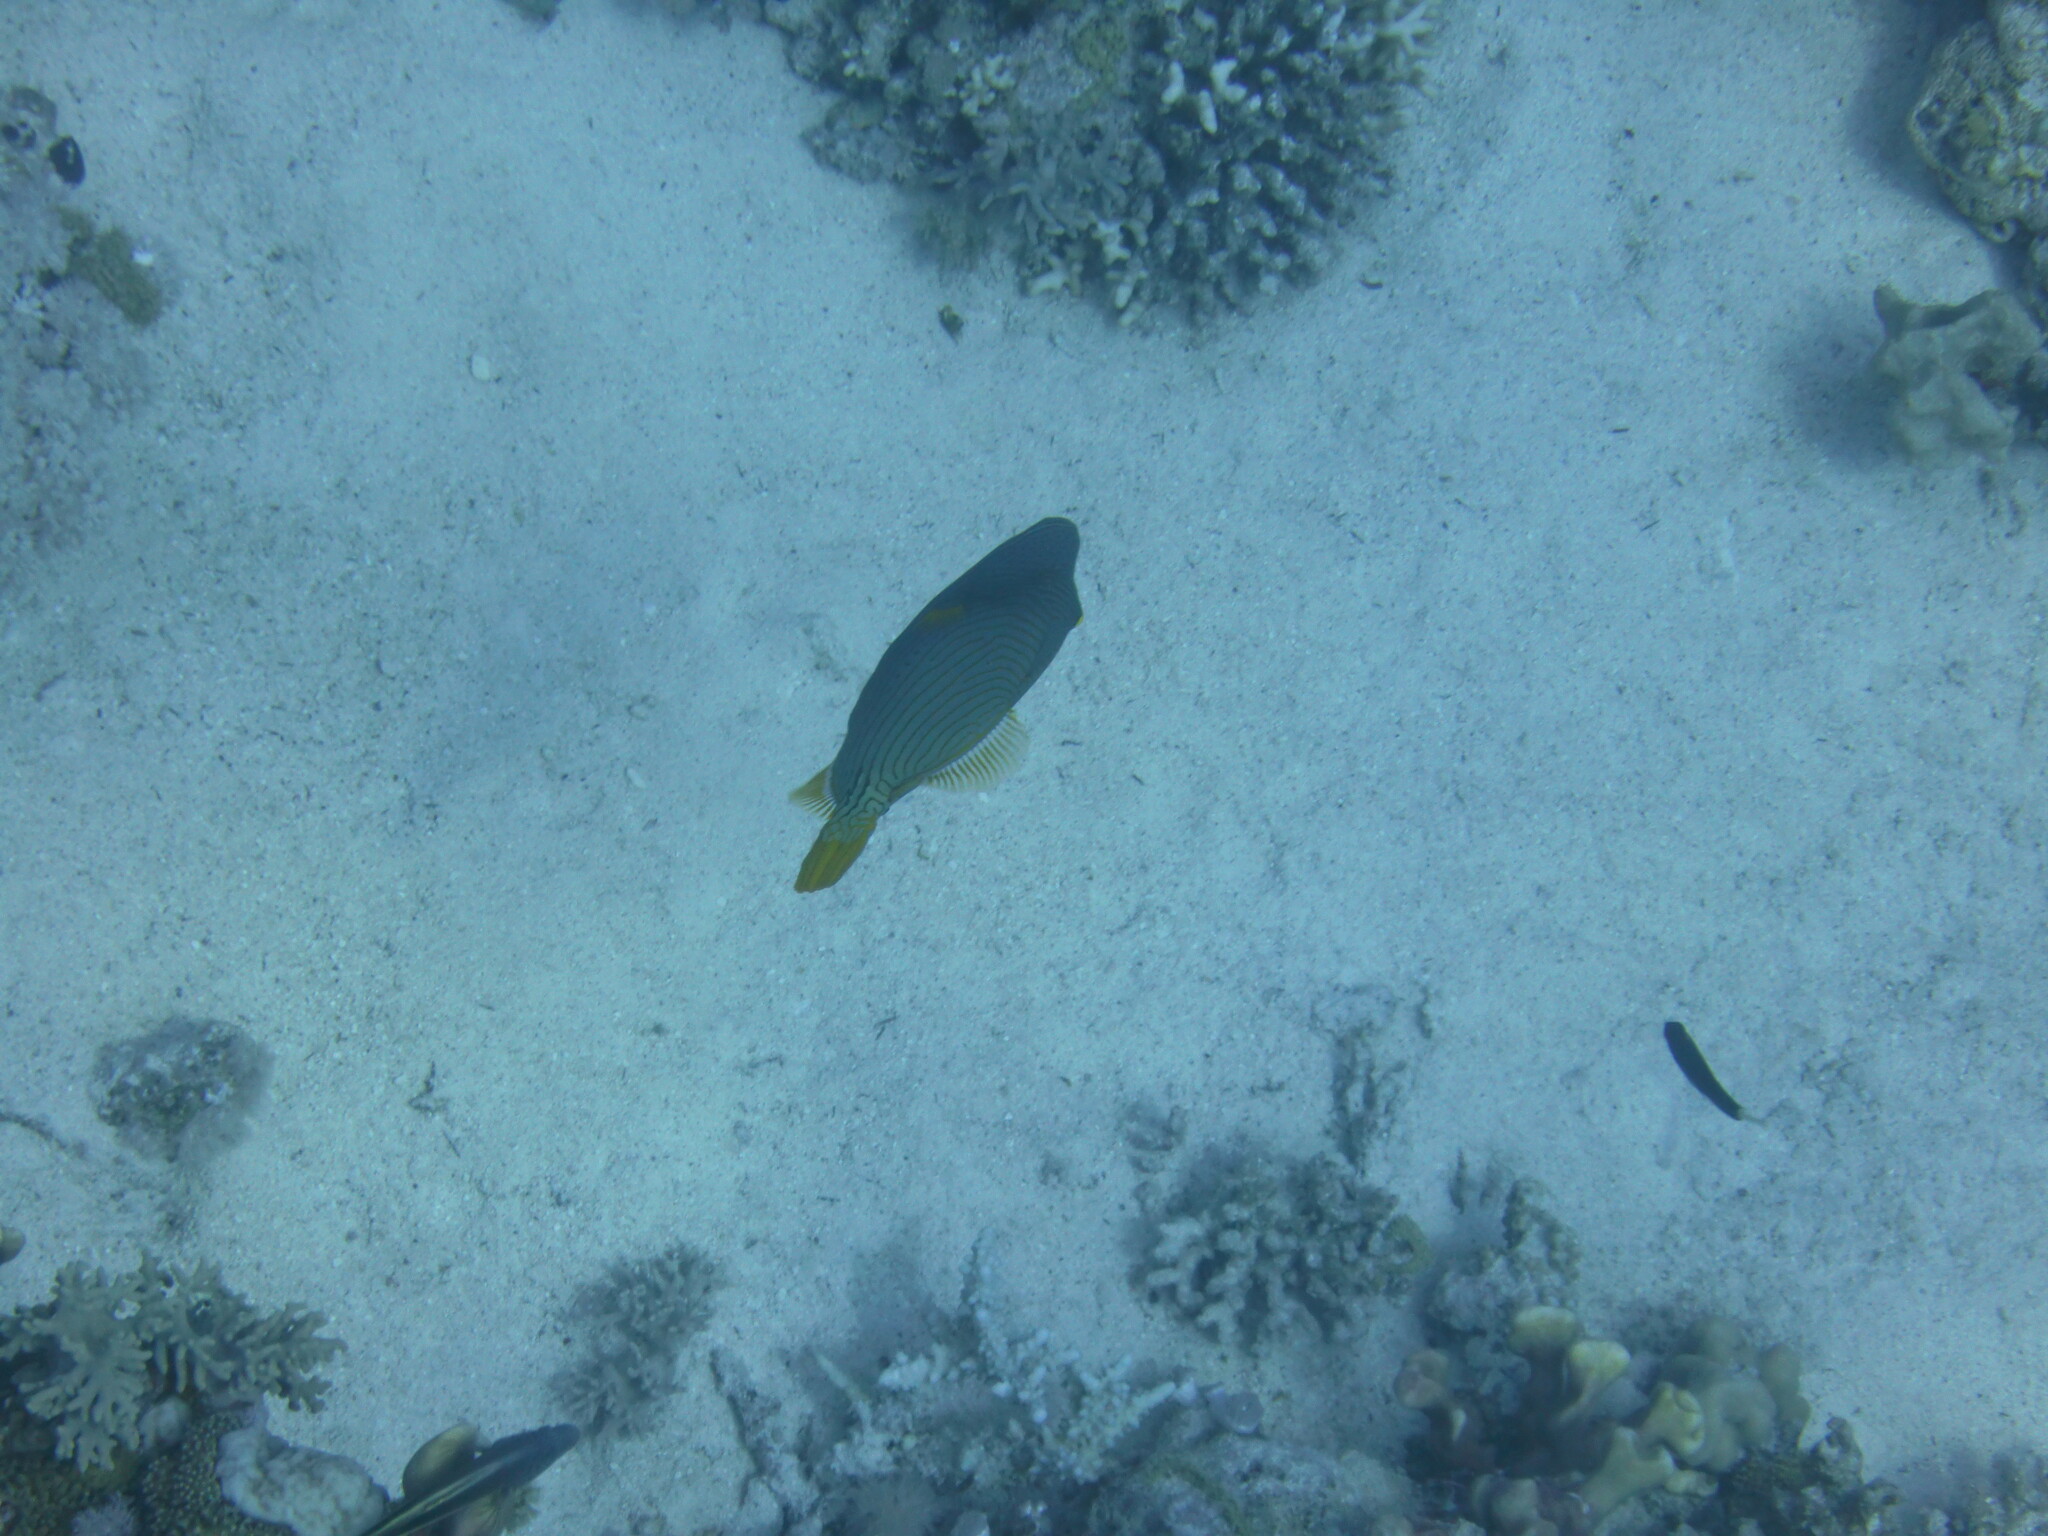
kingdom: Animalia
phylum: Chordata
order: Tetraodontiformes
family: Balistidae
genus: Balistapus
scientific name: Balistapus undulatus
